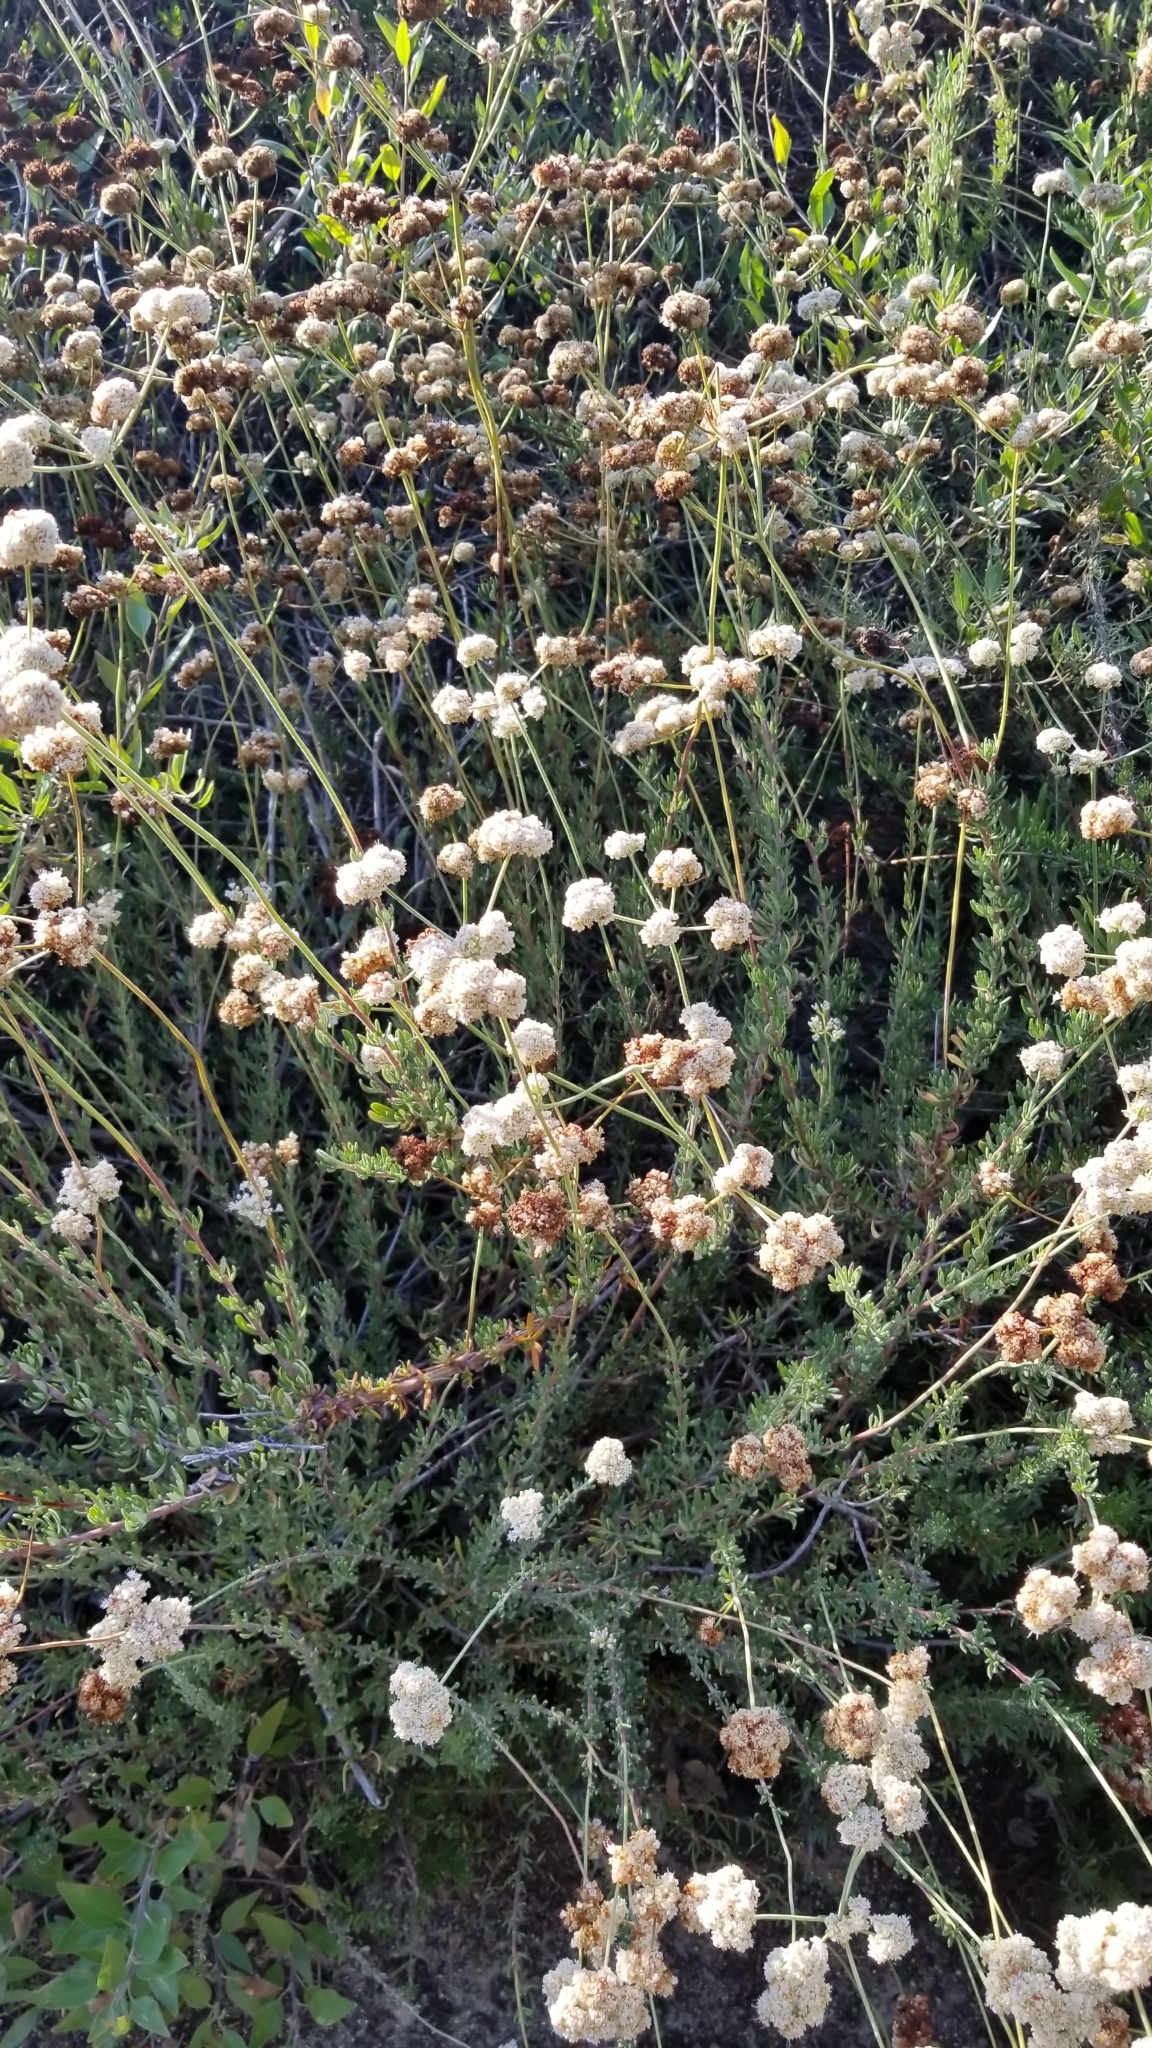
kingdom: Plantae
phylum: Tracheophyta
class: Magnoliopsida
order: Caryophyllales
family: Polygonaceae
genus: Eriogonum
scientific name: Eriogonum fasciculatum
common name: California wild buckwheat
